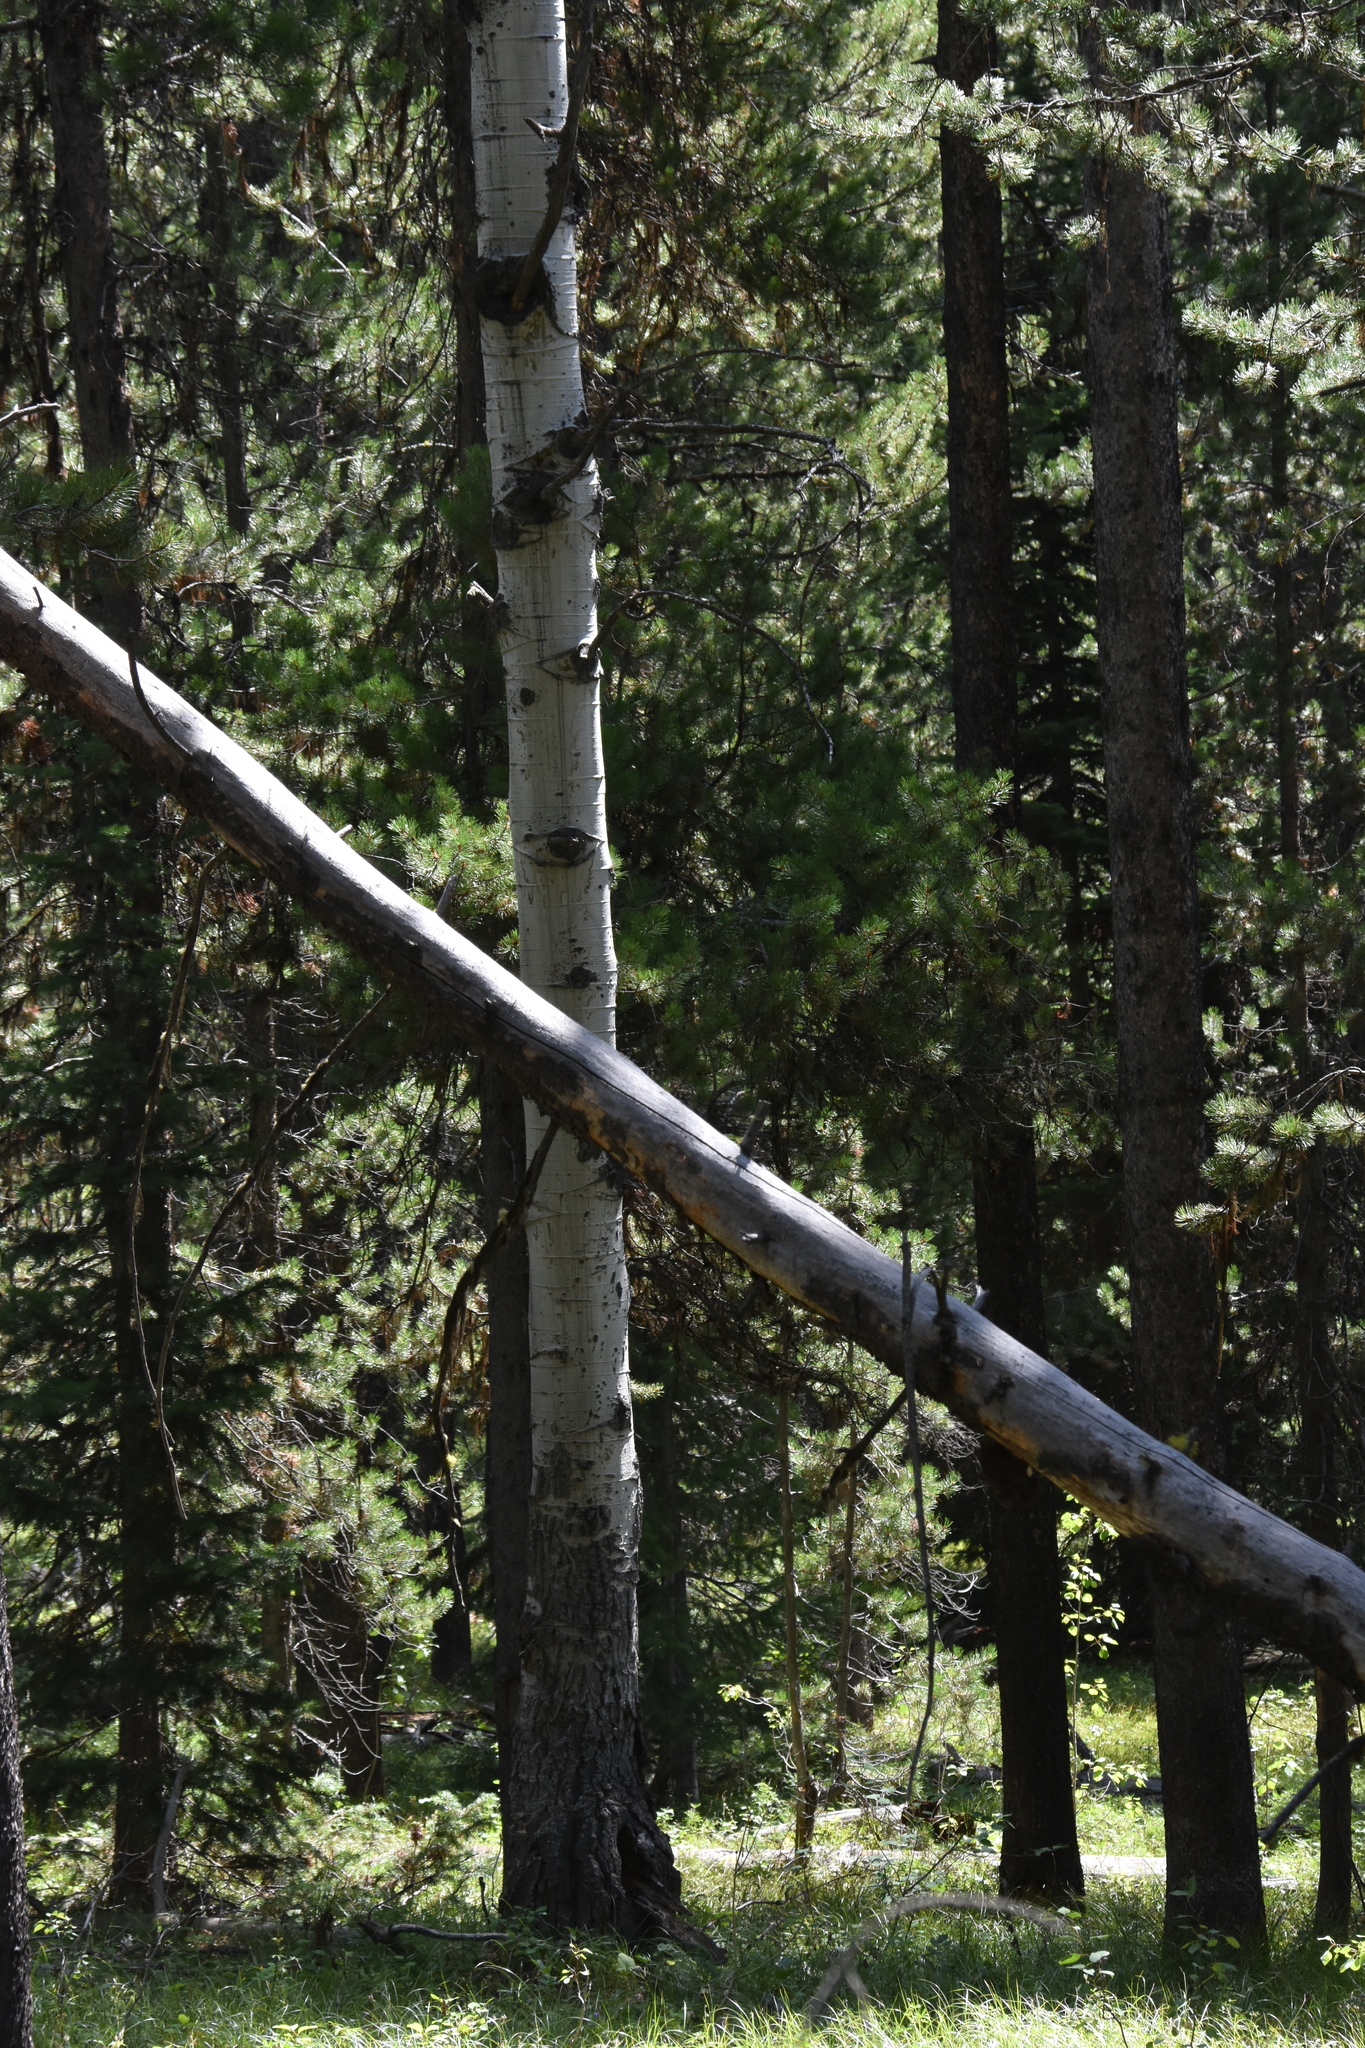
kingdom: Plantae
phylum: Tracheophyta
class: Magnoliopsida
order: Malpighiales
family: Salicaceae
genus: Populus
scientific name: Populus tremuloides
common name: Quaking aspen
